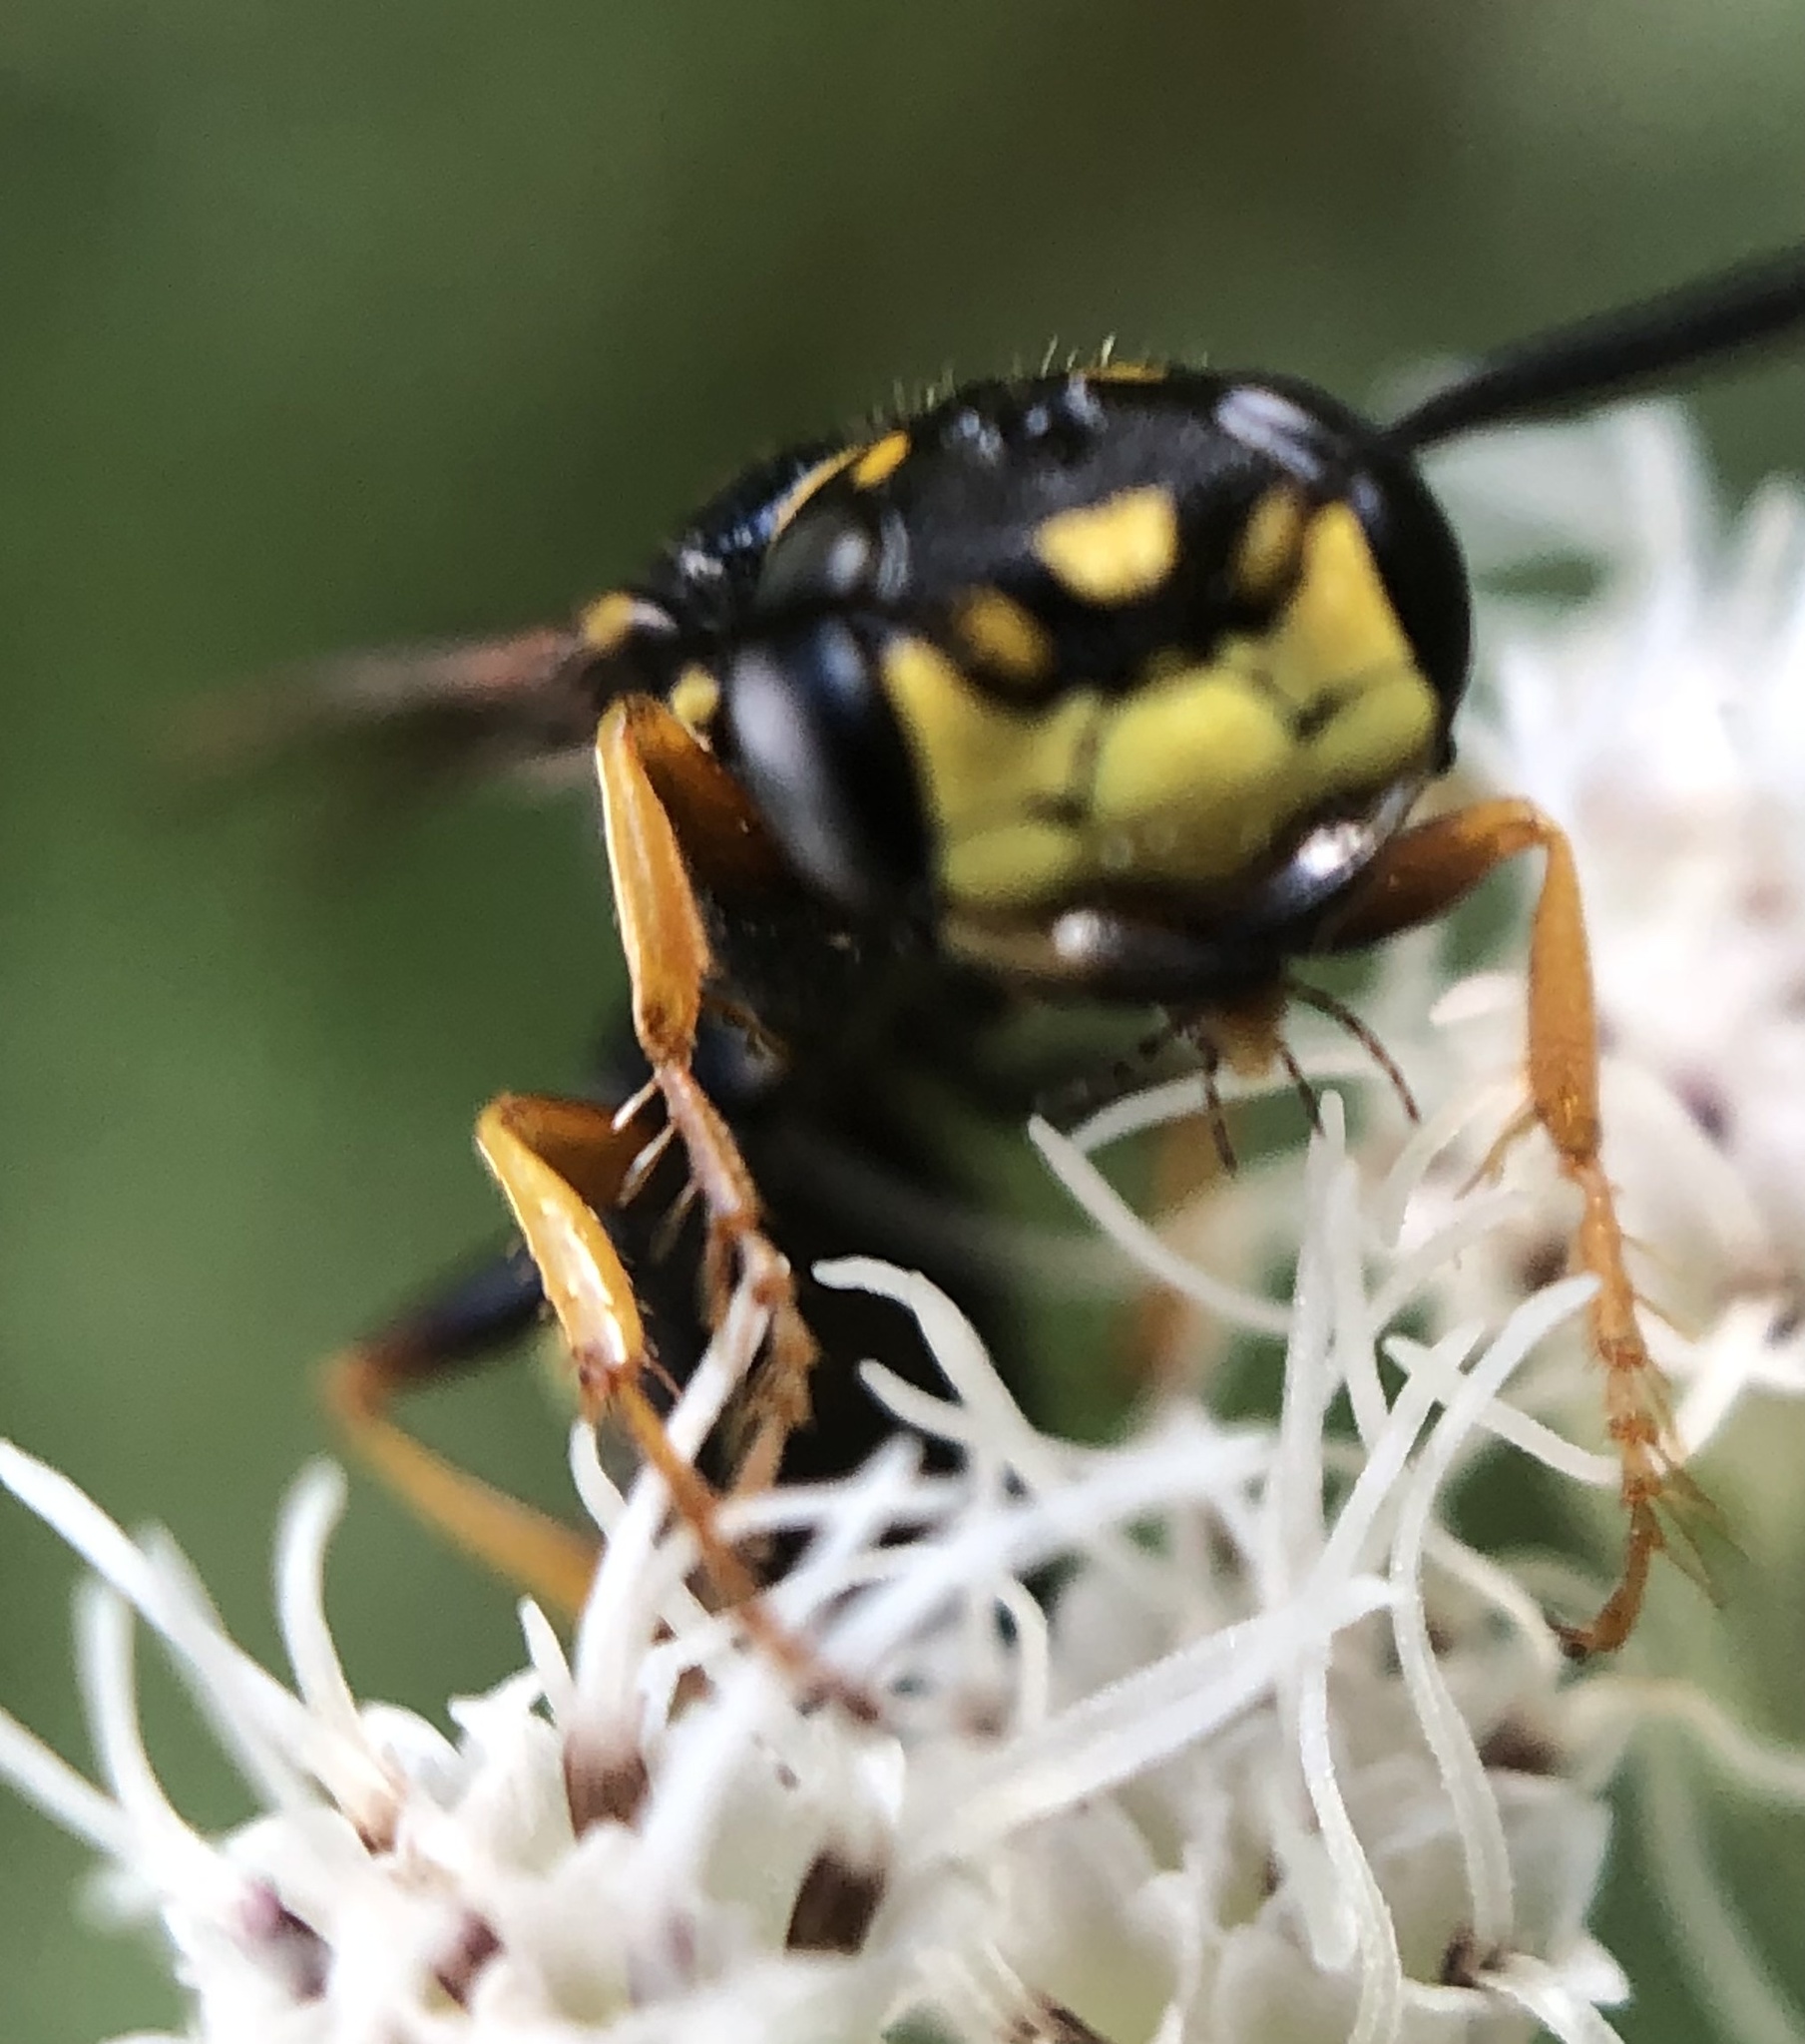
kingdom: Animalia
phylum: Arthropoda
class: Insecta
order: Hymenoptera
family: Crabronidae
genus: Philanthus
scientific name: Philanthus gibbosus
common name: Humped beewolf
